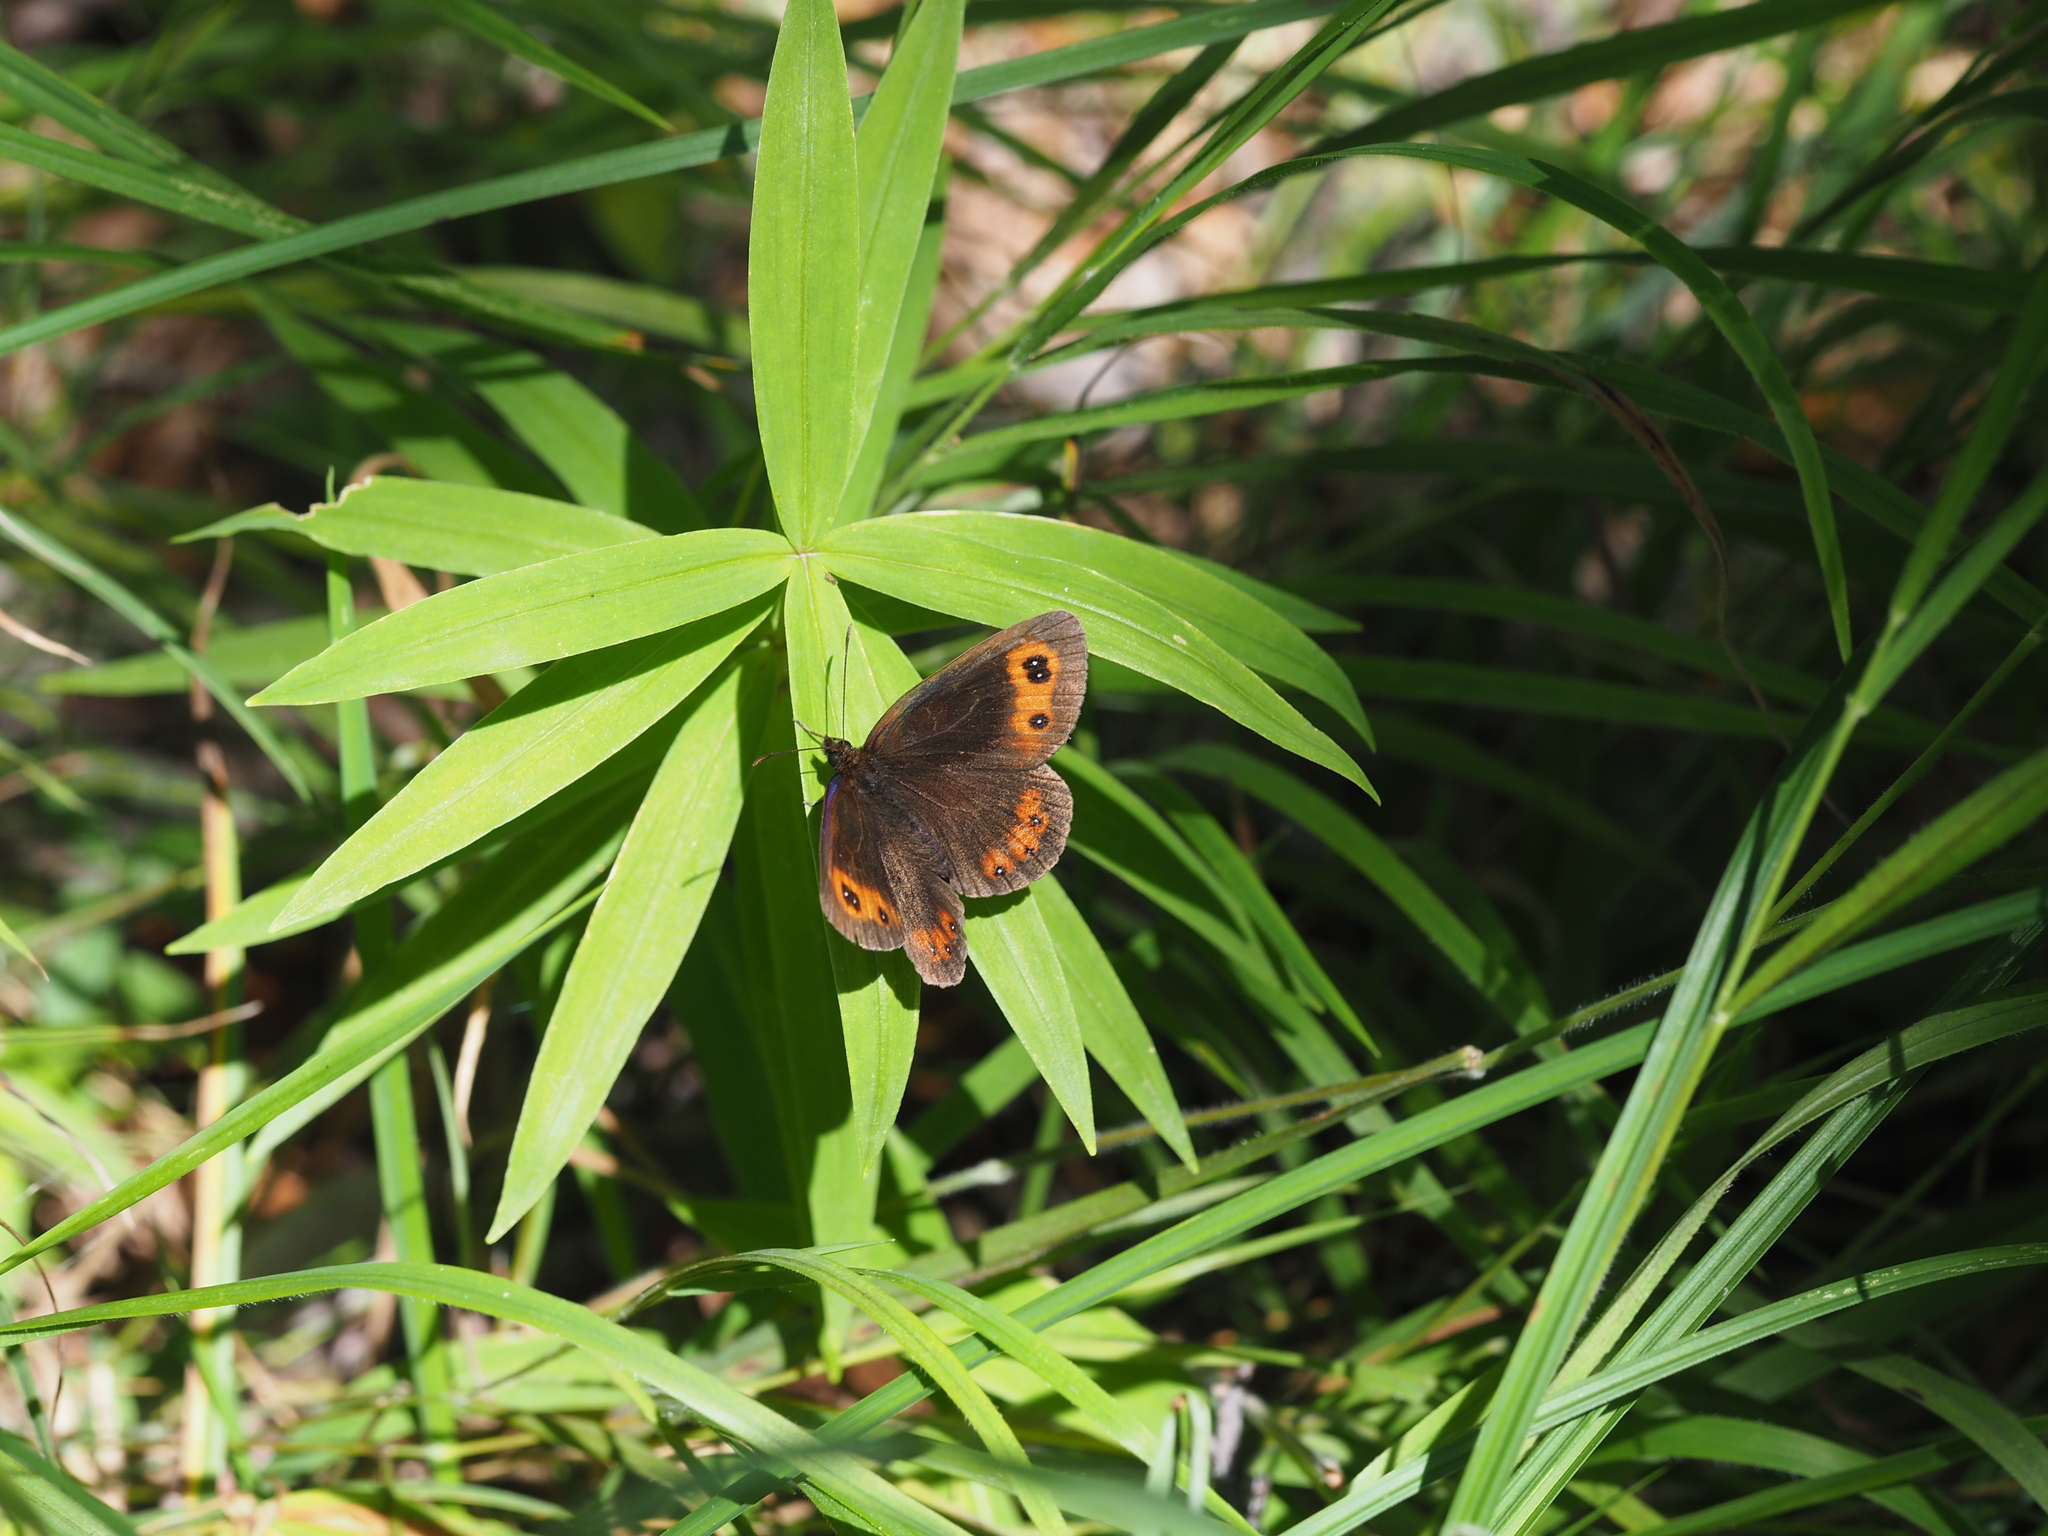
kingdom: Animalia
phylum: Arthropoda
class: Insecta
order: Lepidoptera
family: Nymphalidae
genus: Erebia
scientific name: Erebia aethiops
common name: Scotch argus
